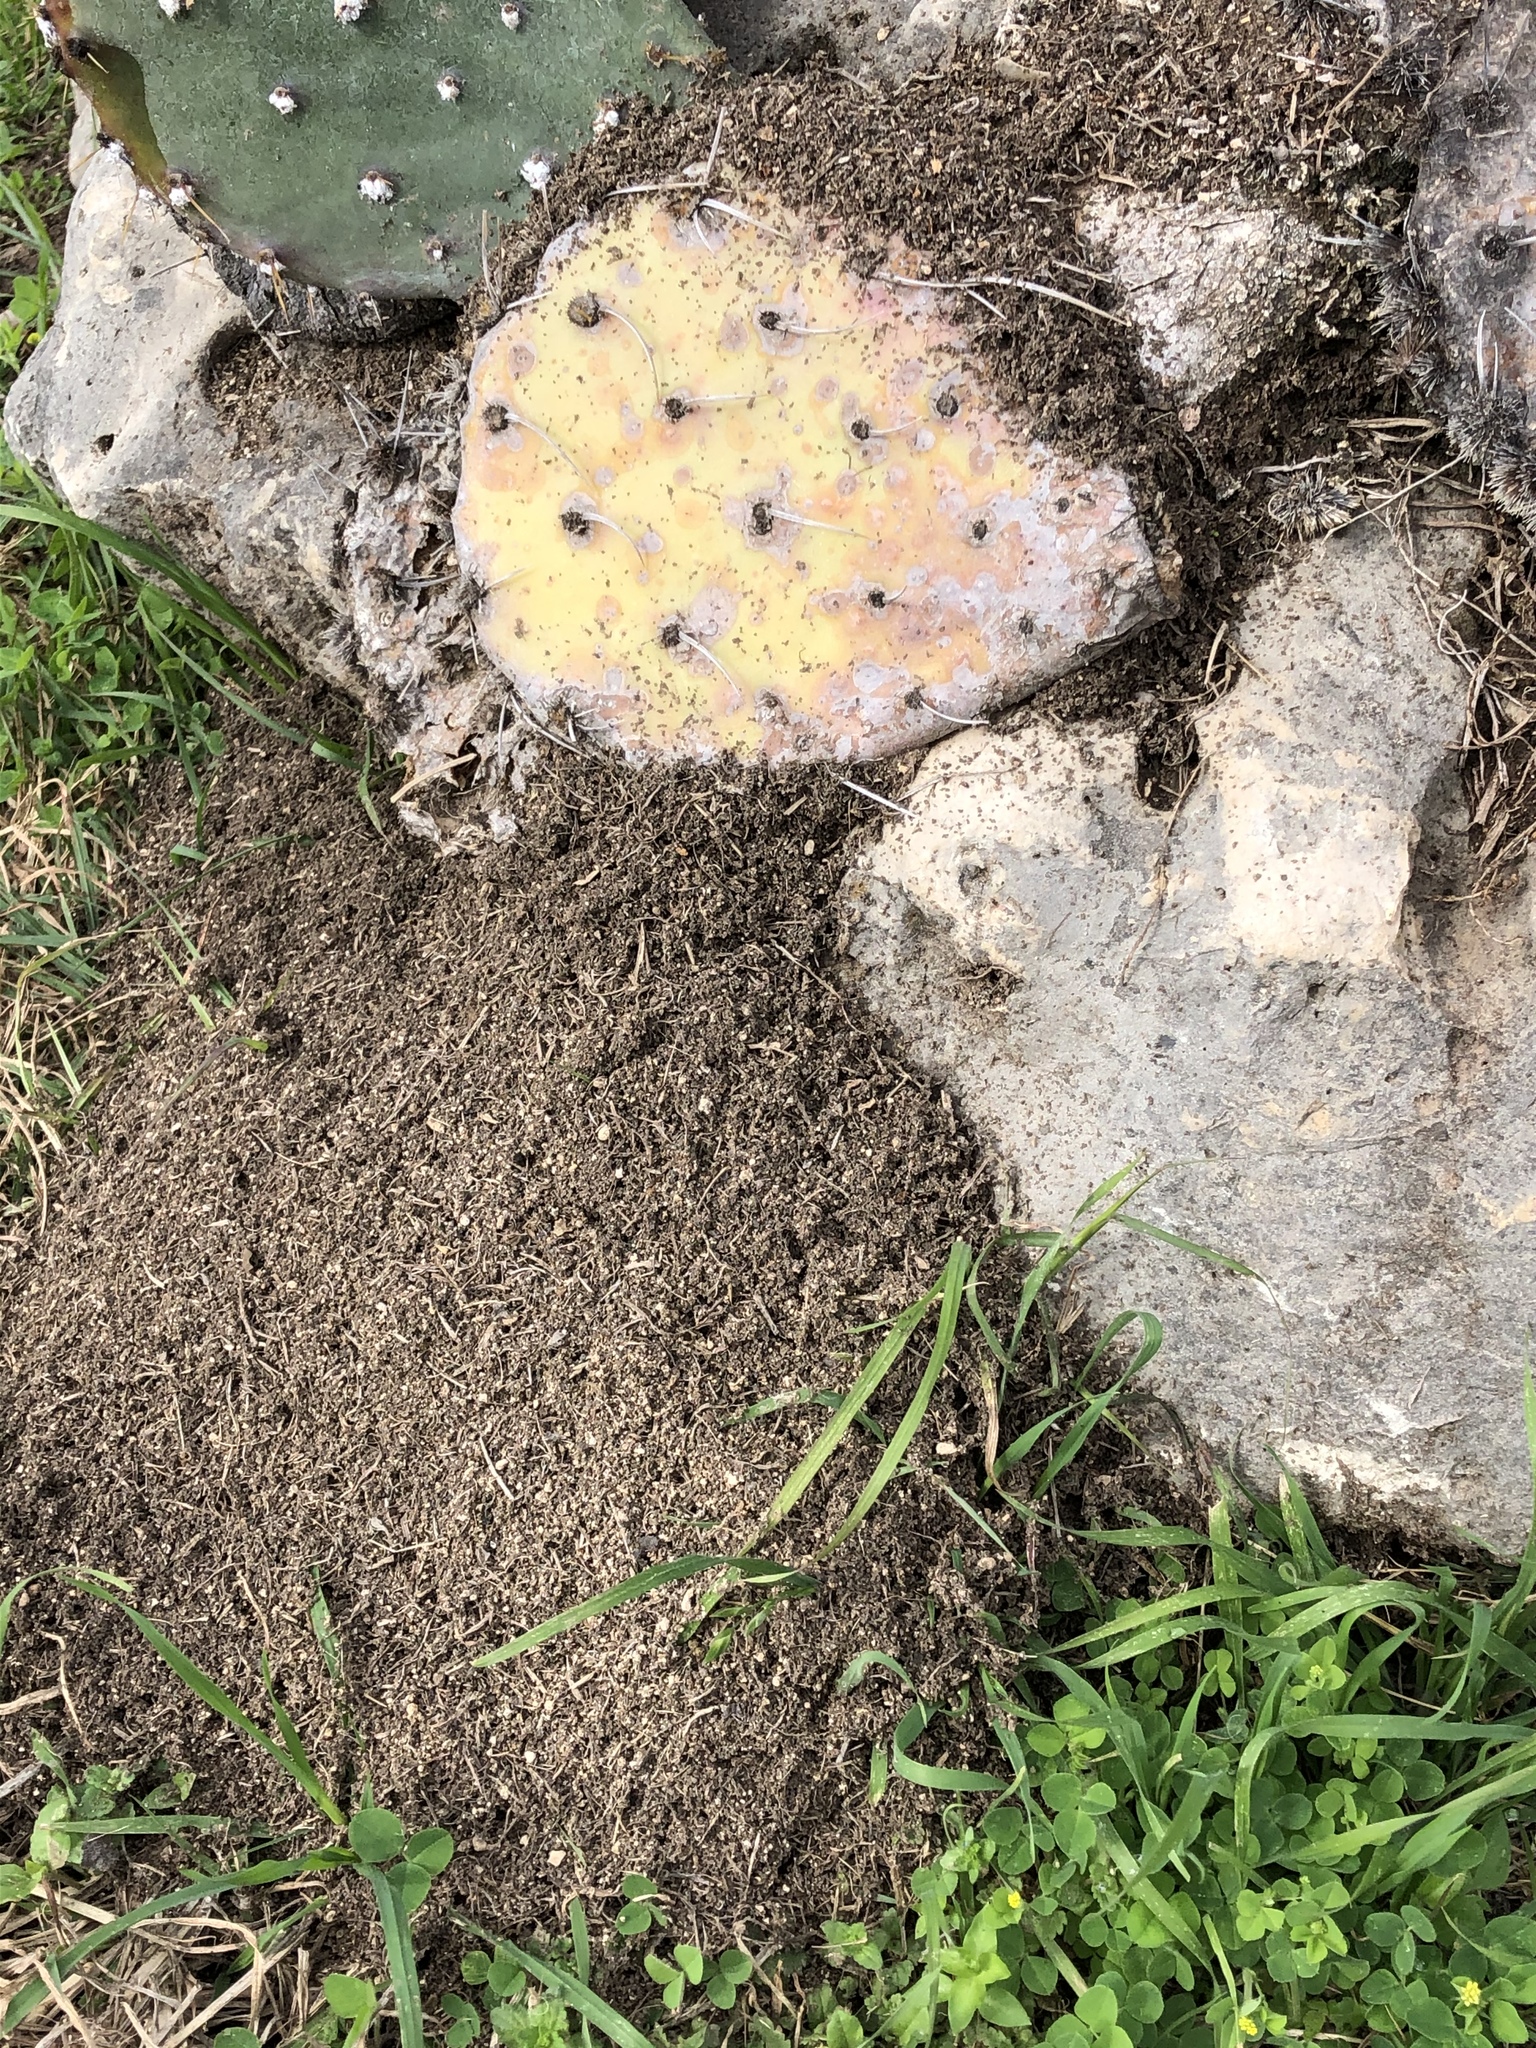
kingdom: Animalia
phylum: Arthropoda
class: Insecta
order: Hymenoptera
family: Formicidae
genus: Solenopsis
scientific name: Solenopsis invicta
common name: Red imported fire ant
